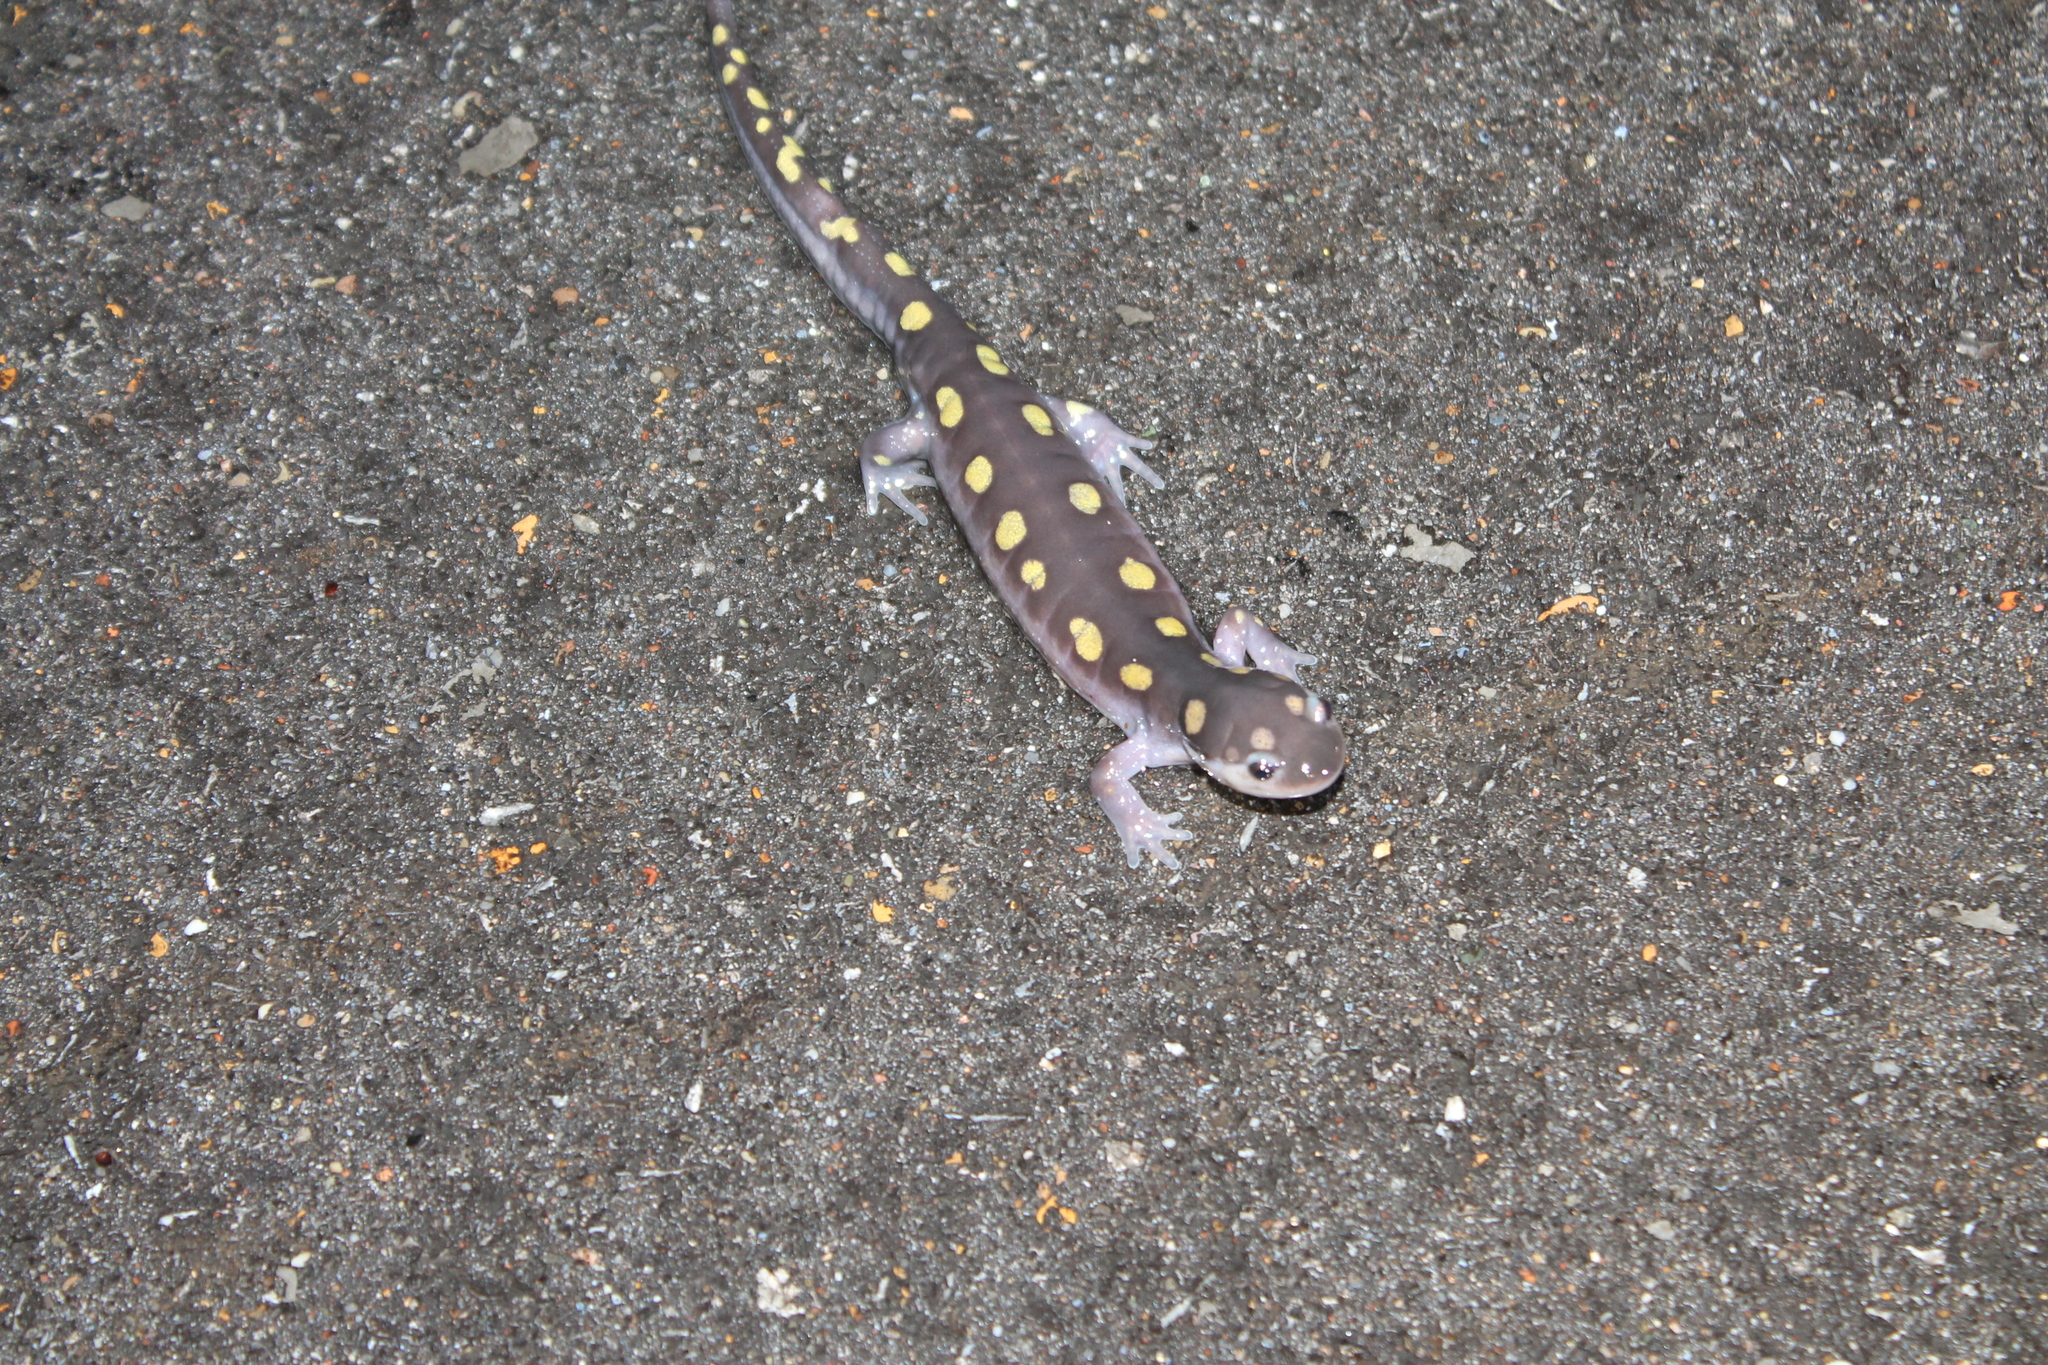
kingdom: Animalia
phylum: Chordata
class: Amphibia
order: Caudata
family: Ambystomatidae
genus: Ambystoma
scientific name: Ambystoma maculatum
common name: Spotted salamander
